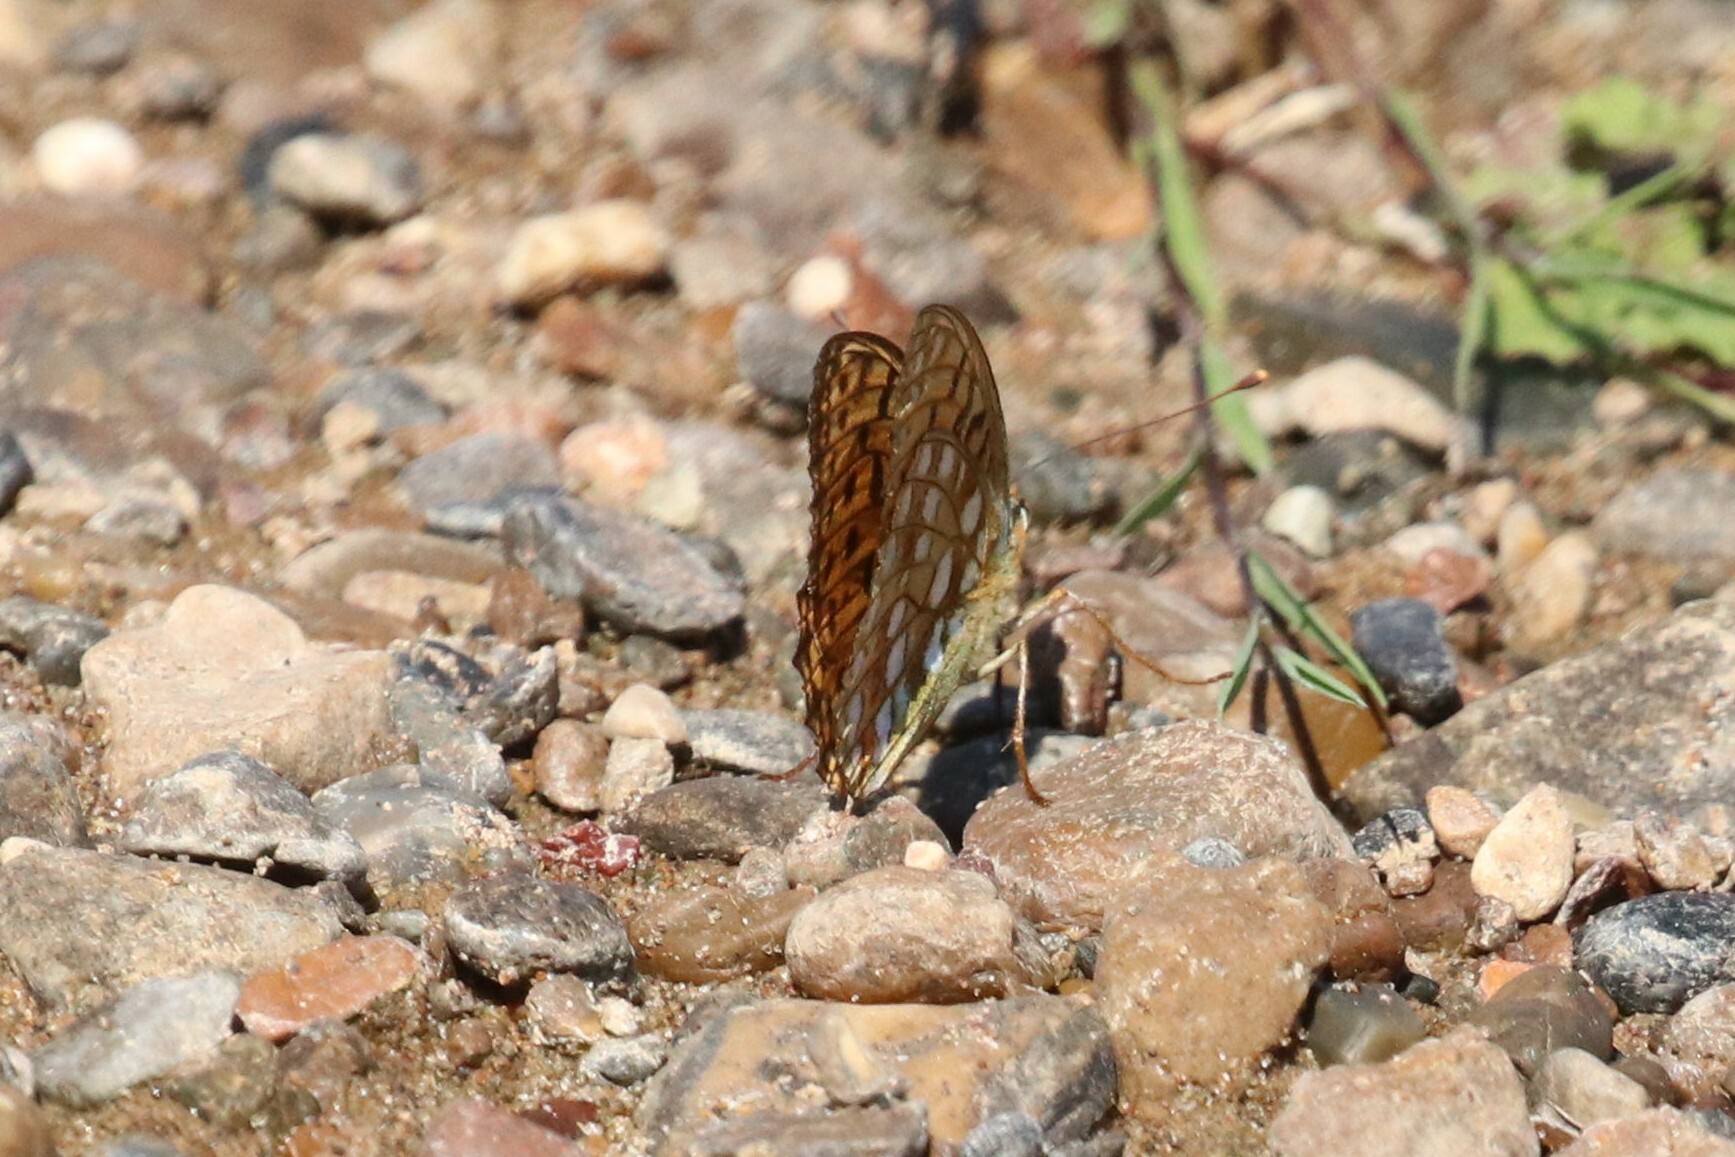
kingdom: Animalia
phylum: Arthropoda
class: Insecta
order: Lepidoptera
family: Nymphalidae
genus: Fabriciana
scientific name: Fabriciana adippe
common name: High brown fritillary
